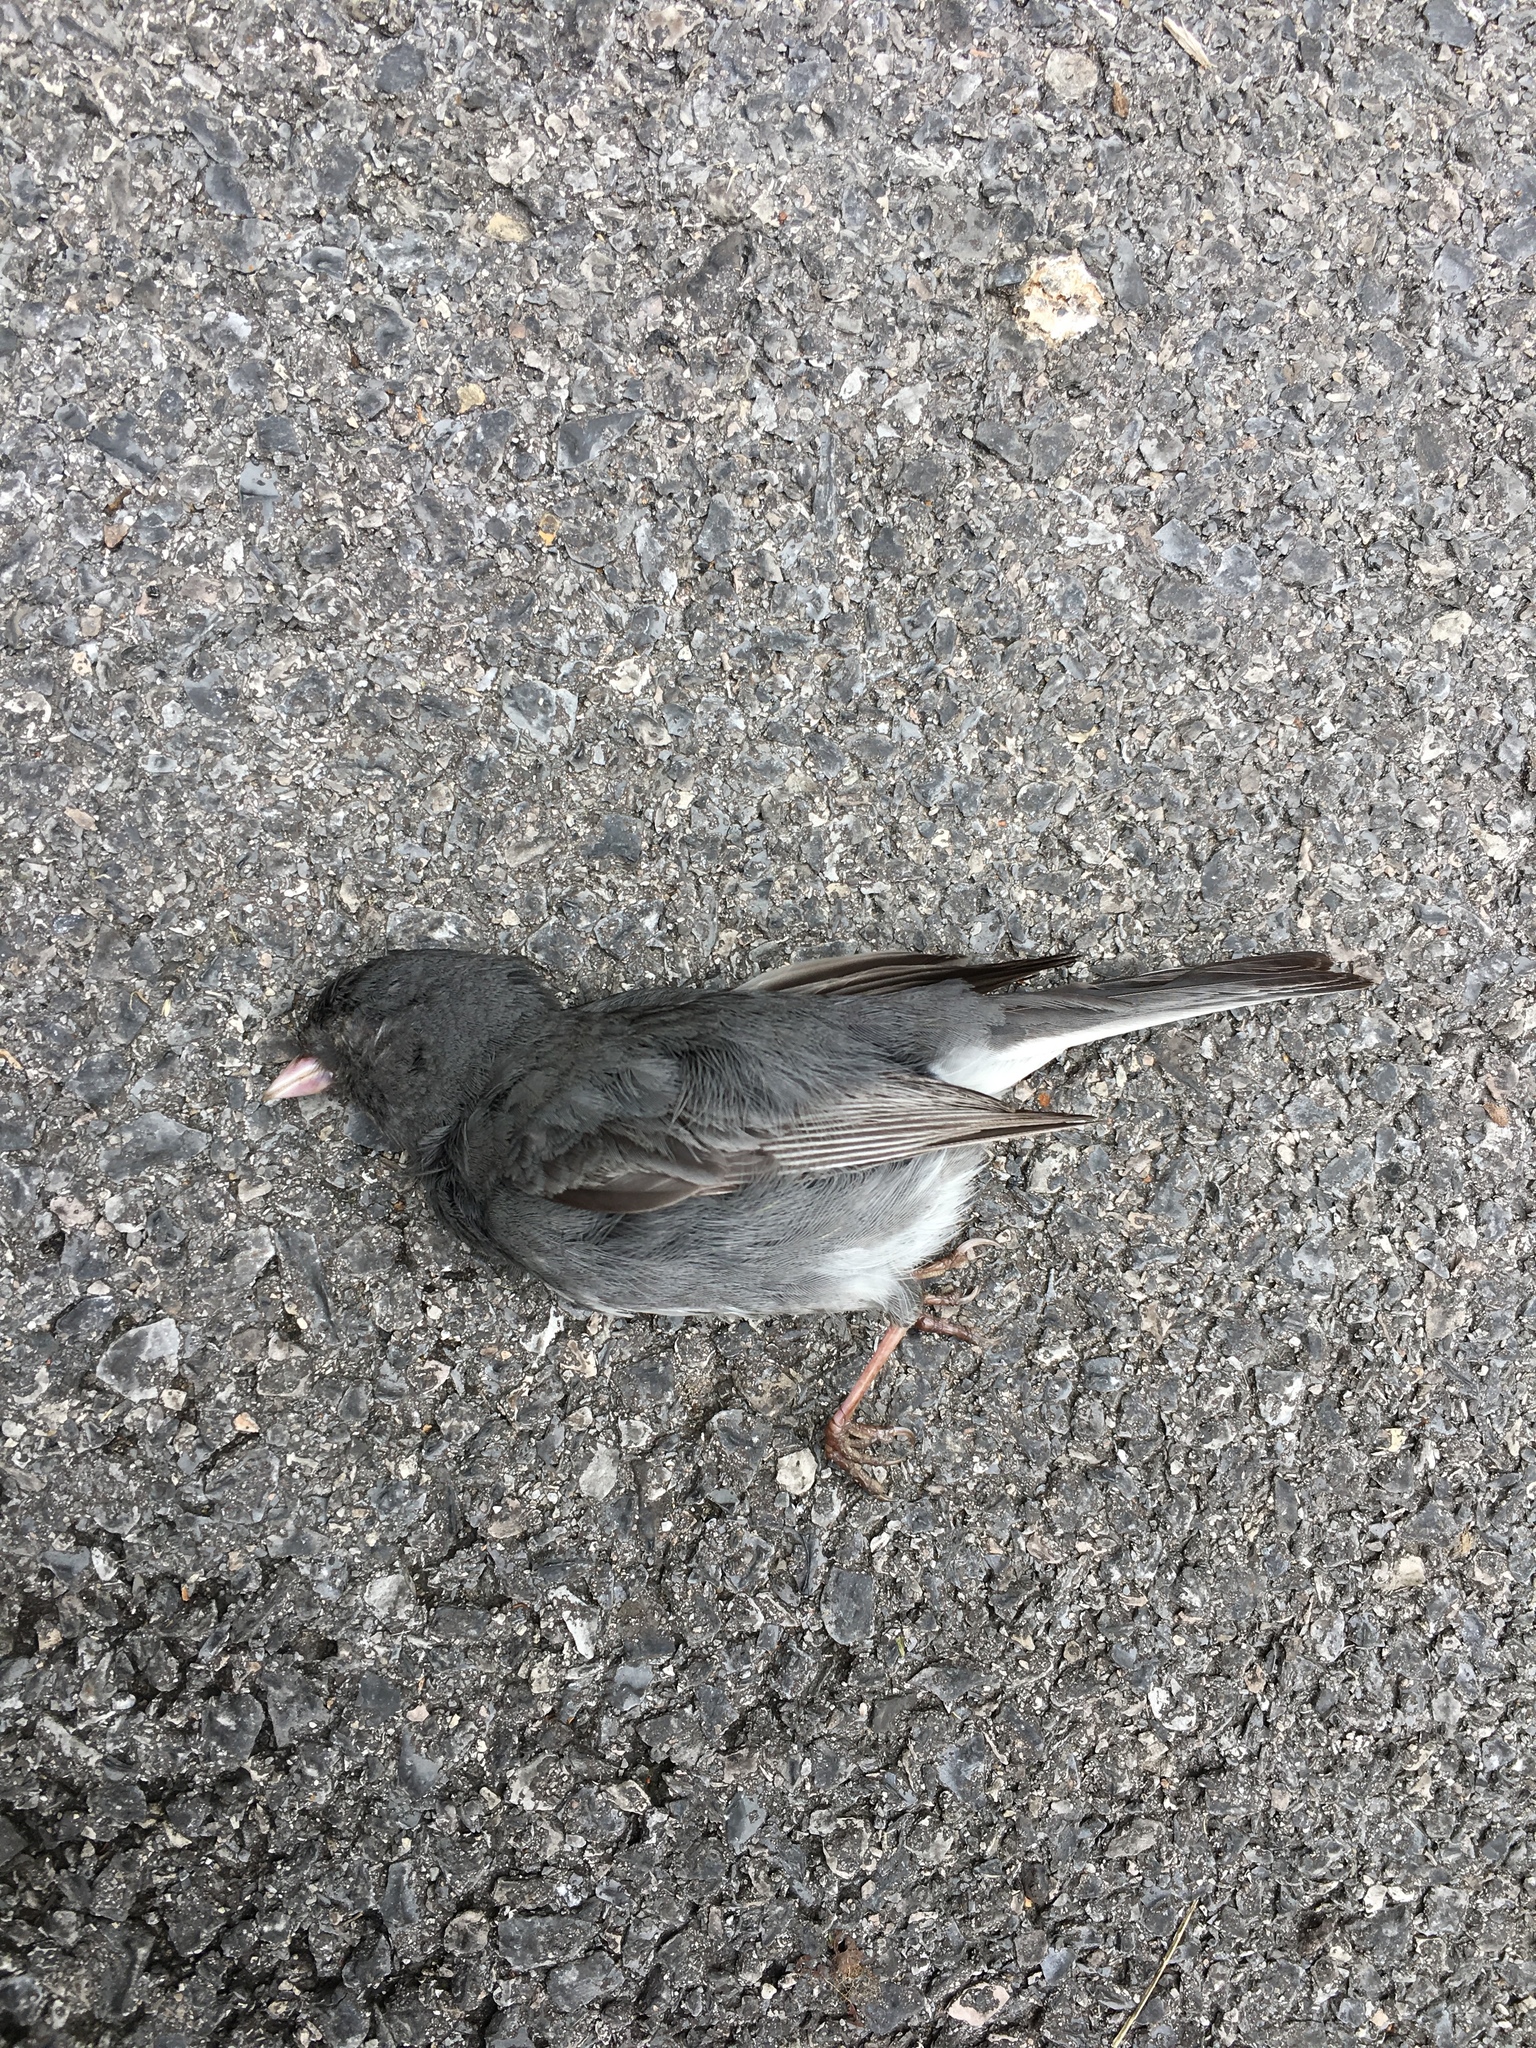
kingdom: Animalia
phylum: Chordata
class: Aves
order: Passeriformes
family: Passerellidae
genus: Junco
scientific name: Junco hyemalis
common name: Dark-eyed junco
